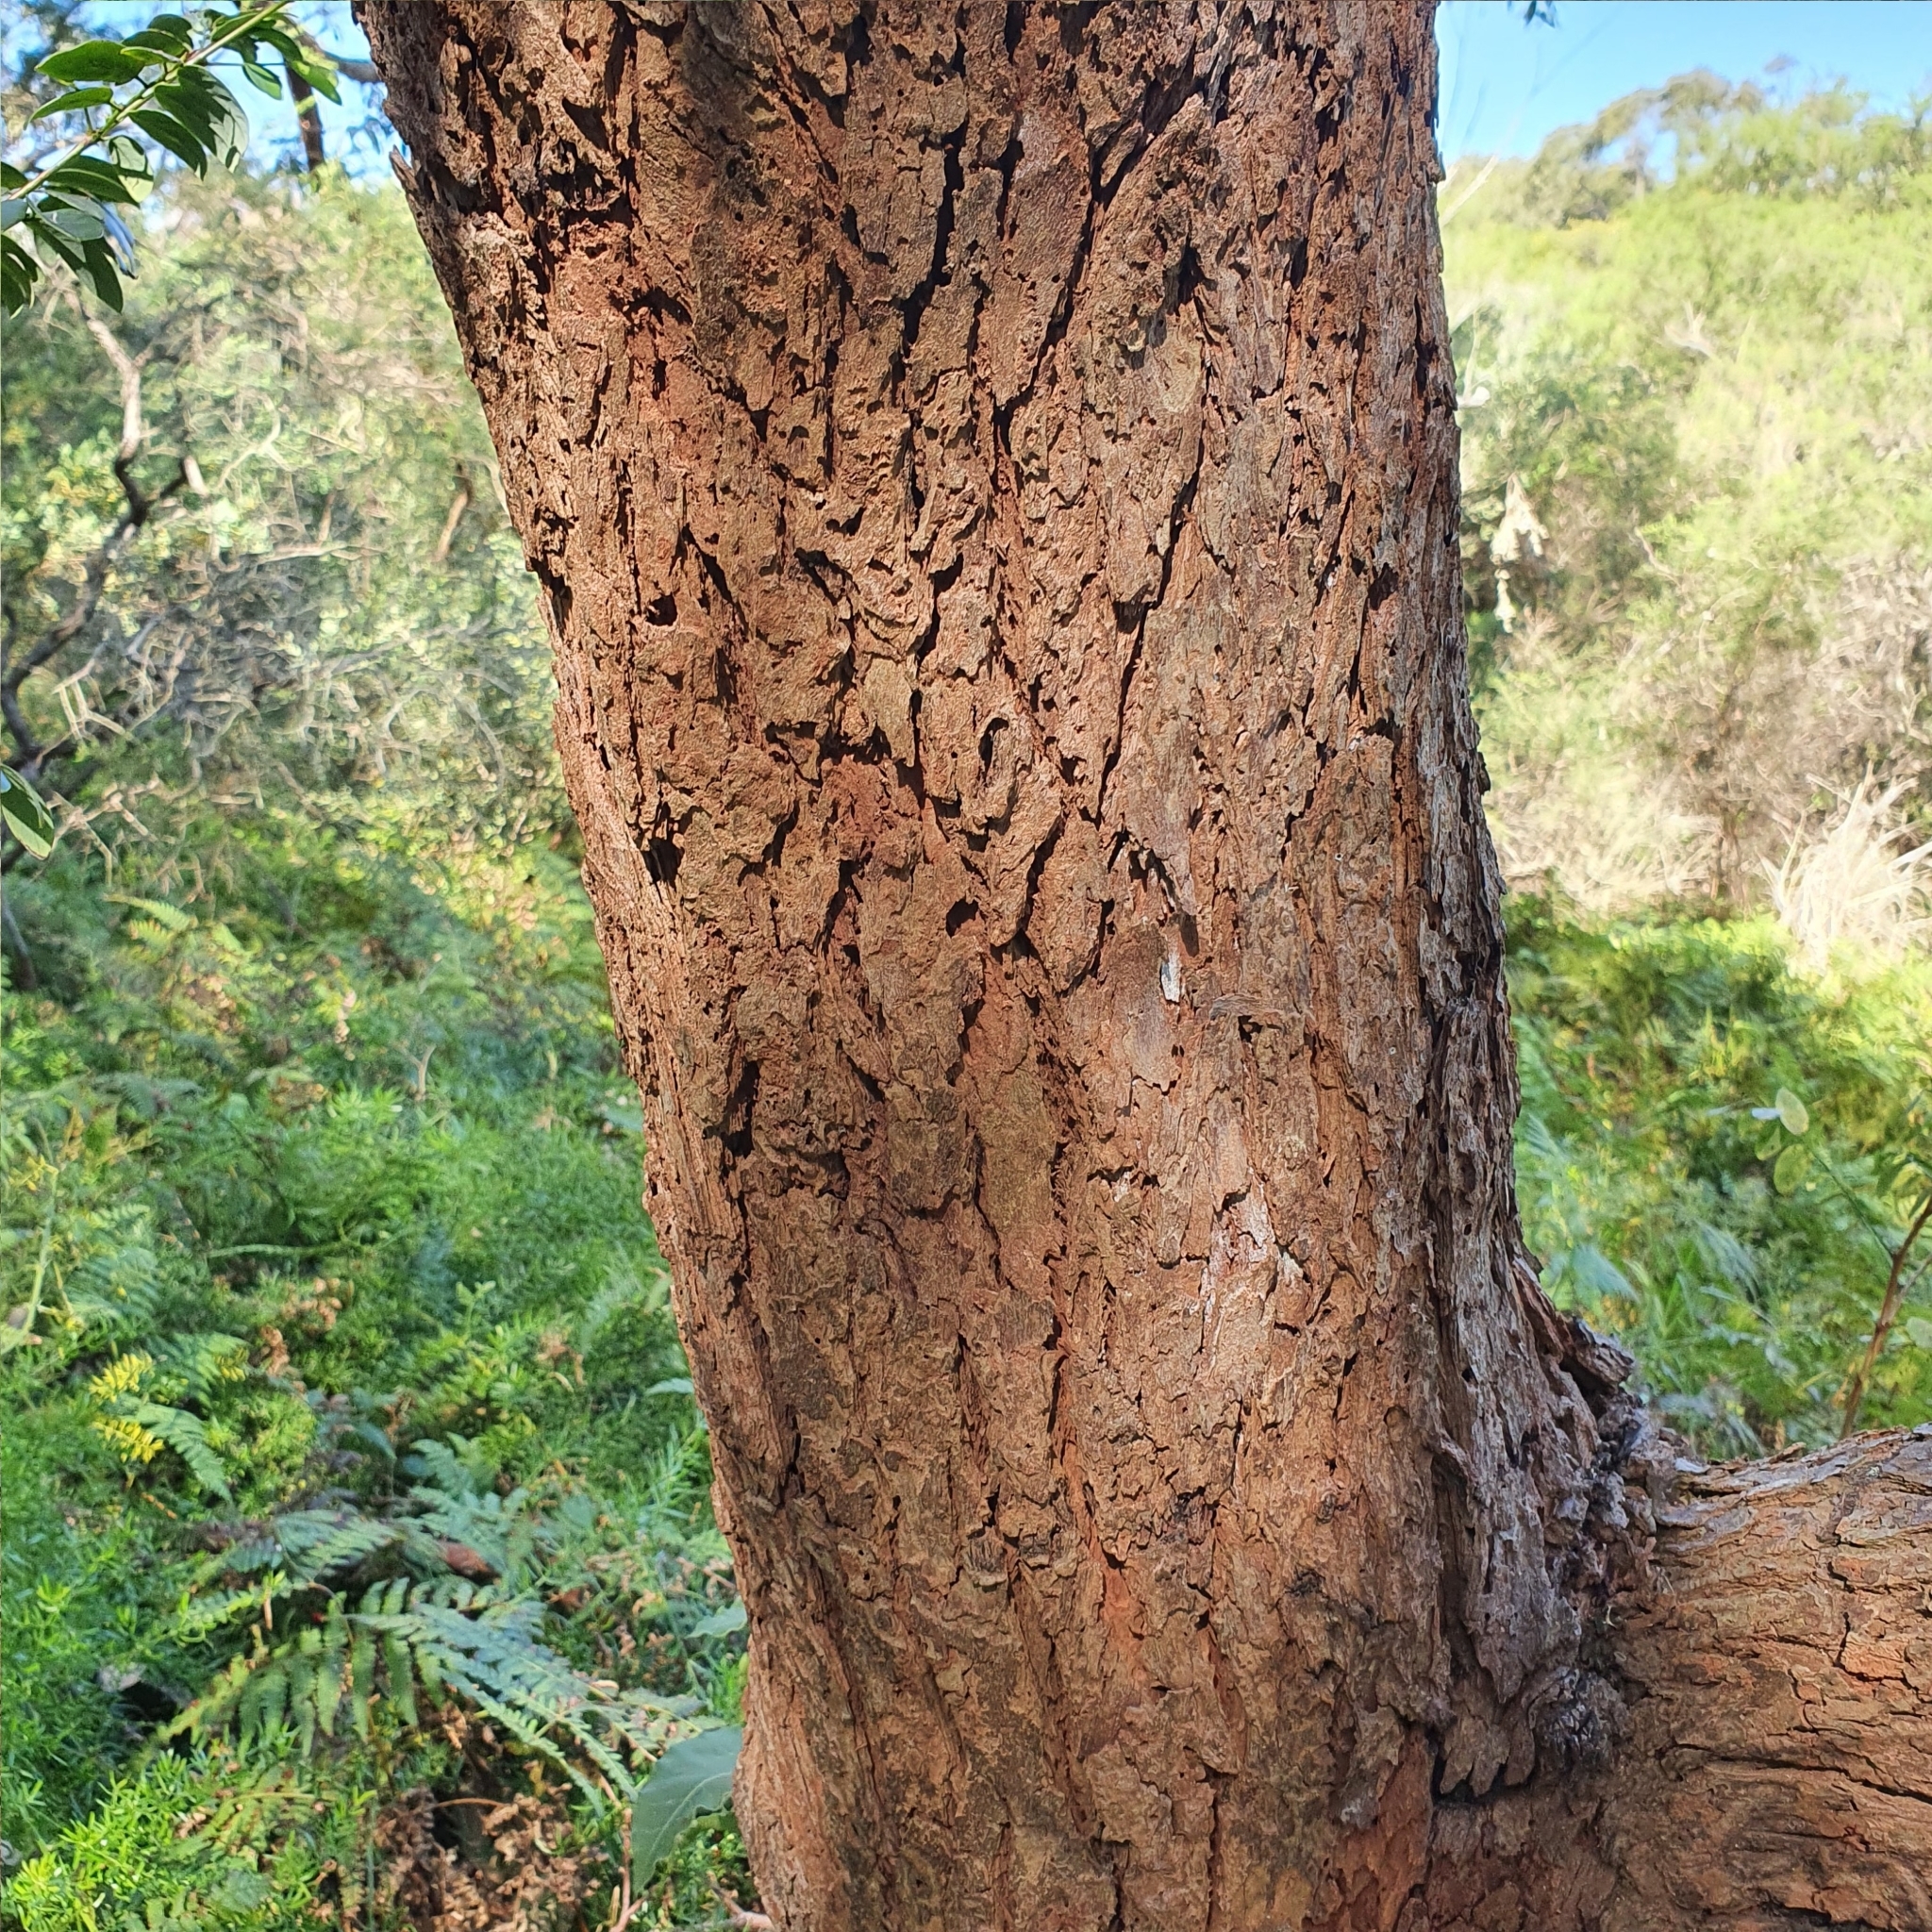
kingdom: Plantae
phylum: Tracheophyta
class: Magnoliopsida
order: Myrtales
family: Myrtaceae
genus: Eucalyptus
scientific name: Eucalyptus botryoides
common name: Bangalay
